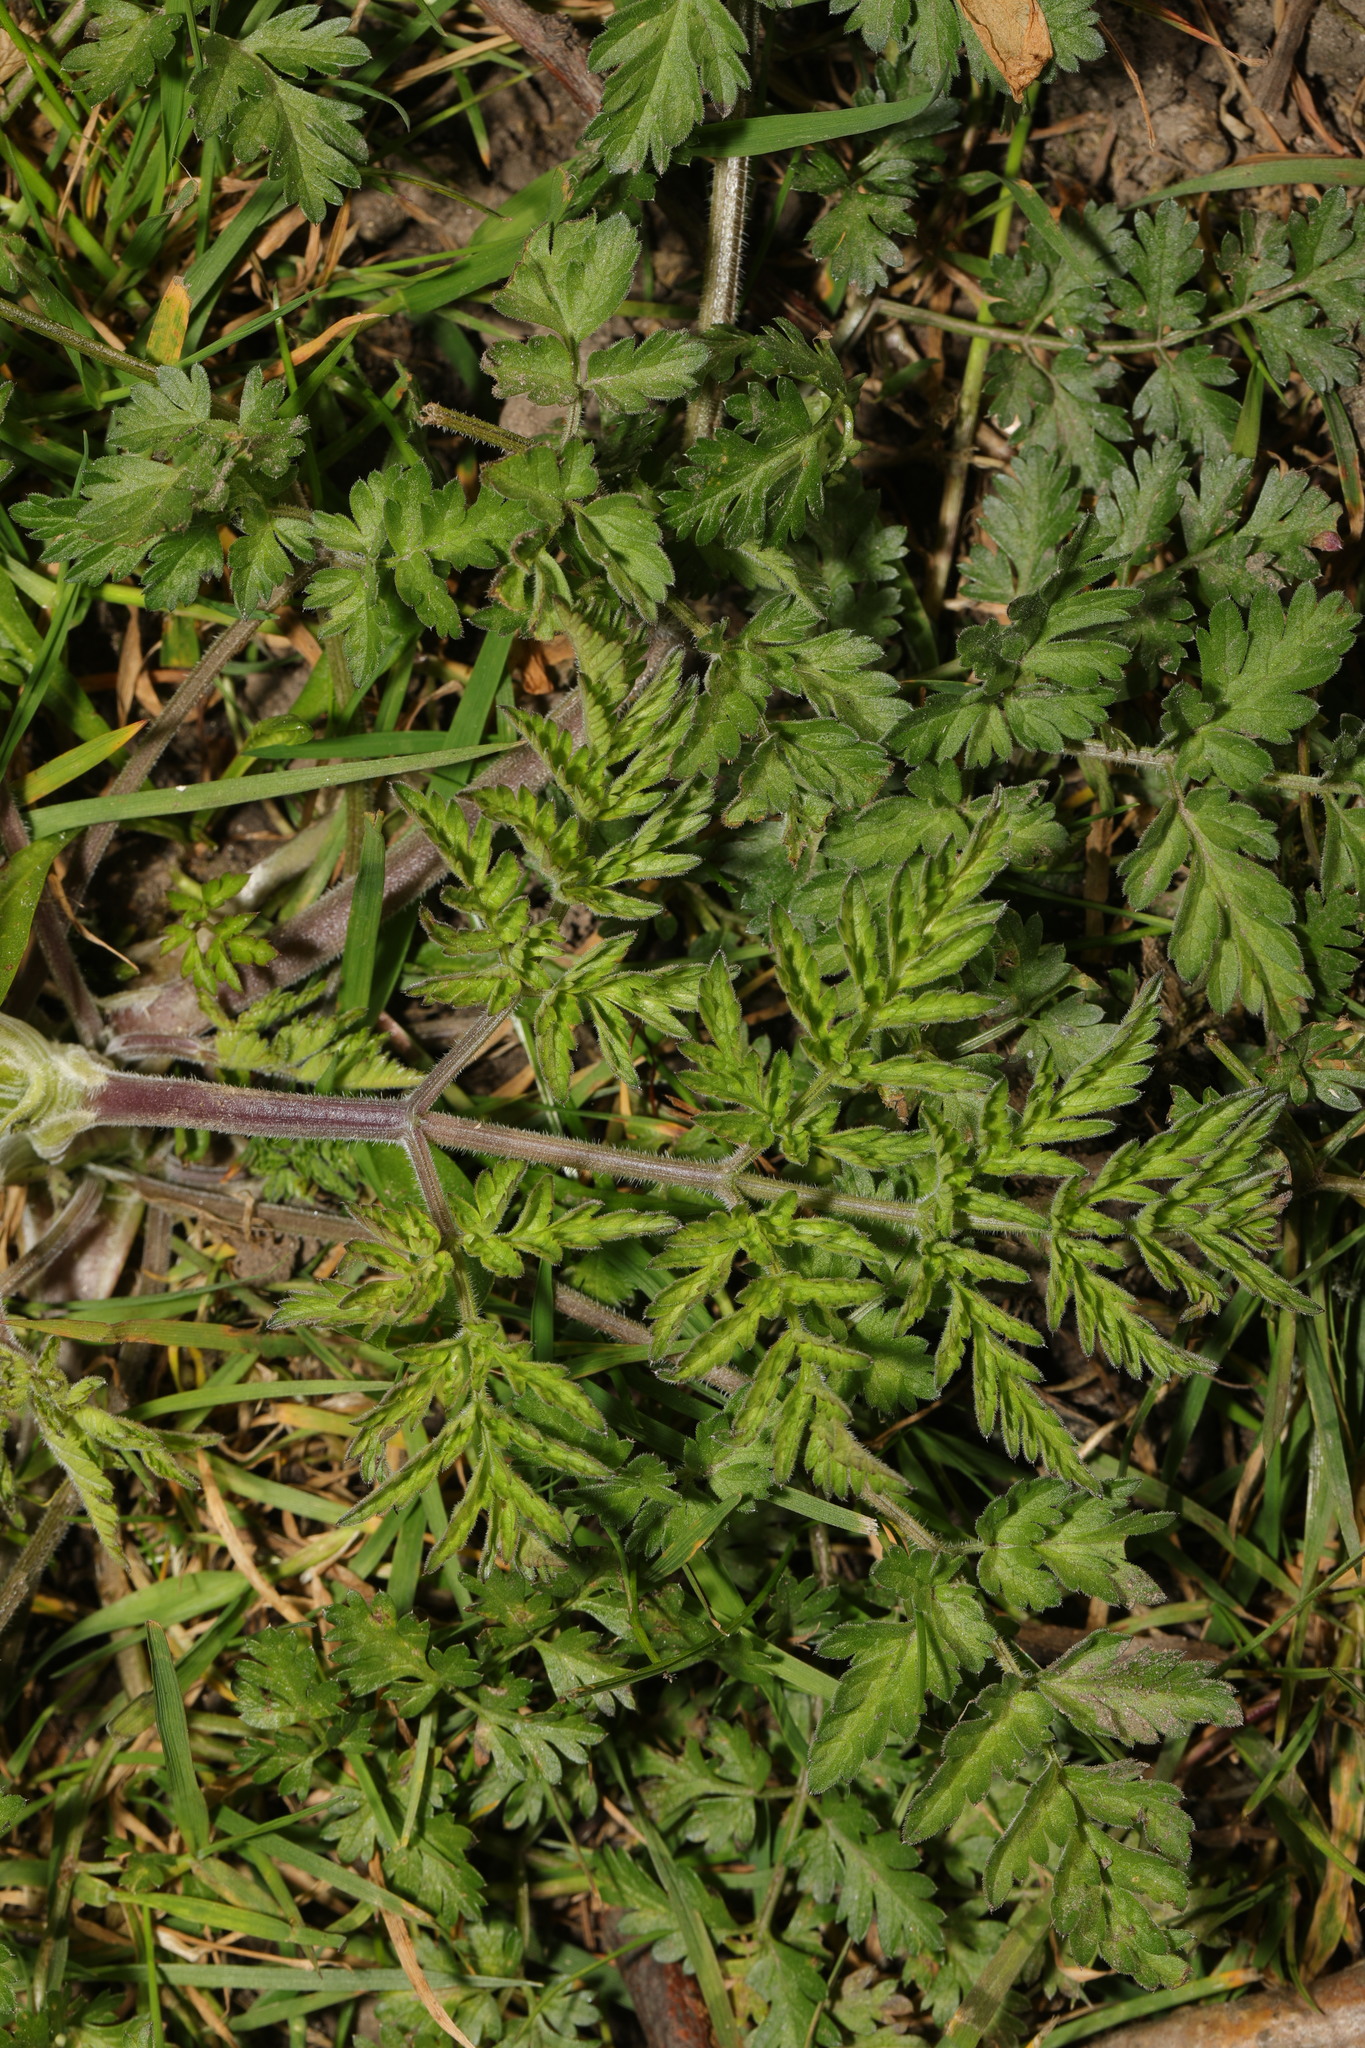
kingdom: Plantae
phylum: Tracheophyta
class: Magnoliopsida
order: Apiales
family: Apiaceae
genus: Anthriscus
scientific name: Anthriscus sylvestris
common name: Cow parsley
